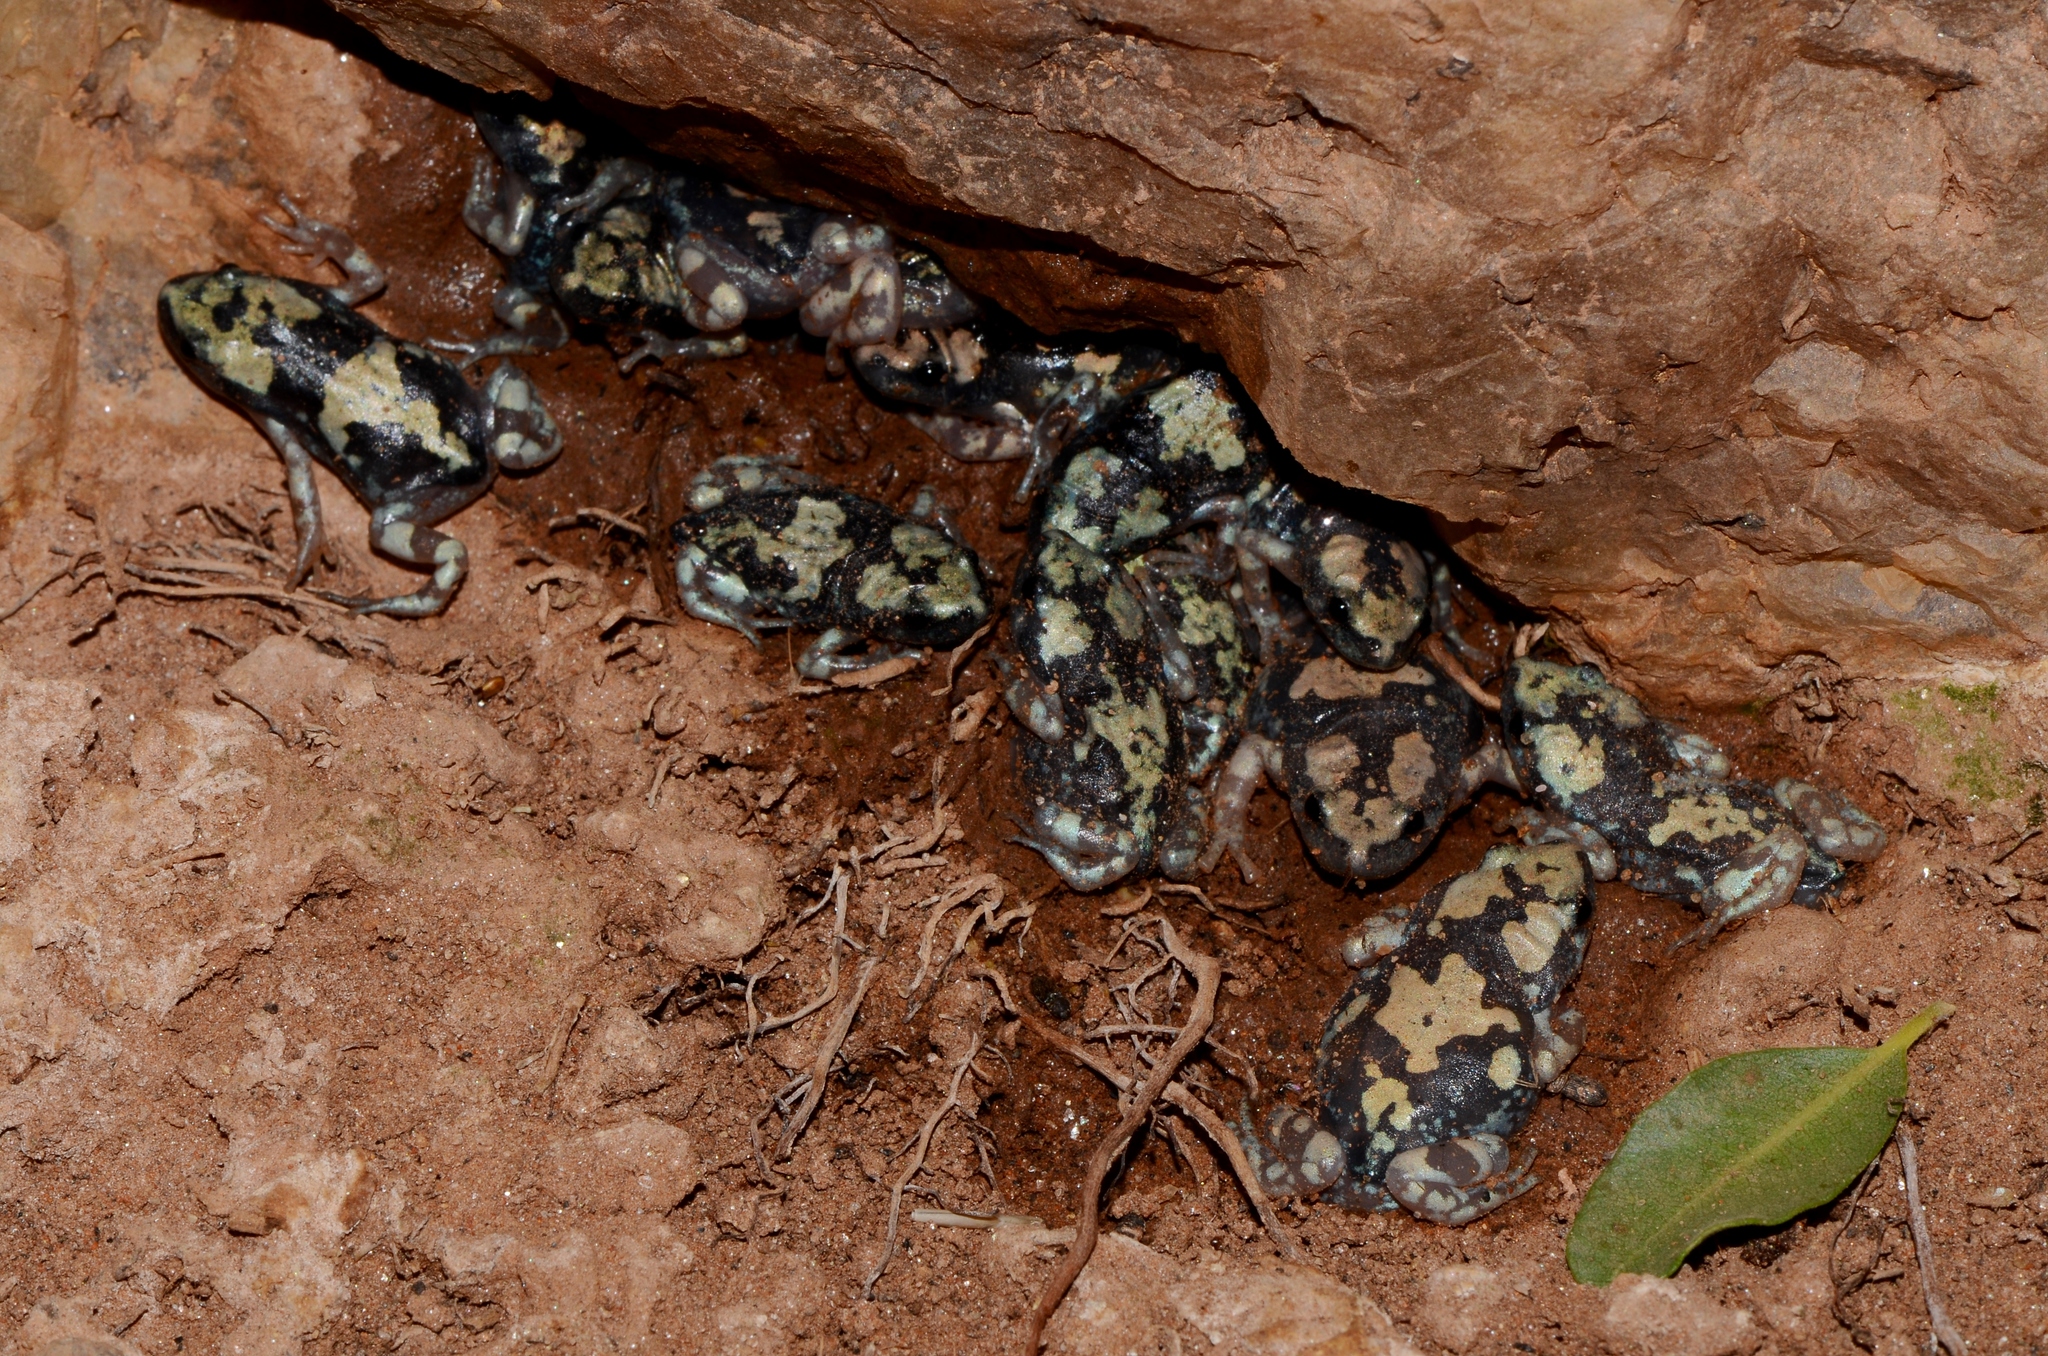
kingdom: Animalia
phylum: Chordata
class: Amphibia
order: Anura
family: Microhylidae
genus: Phrynomantis
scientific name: Phrynomantis annectens
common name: Marbled rubber frog
